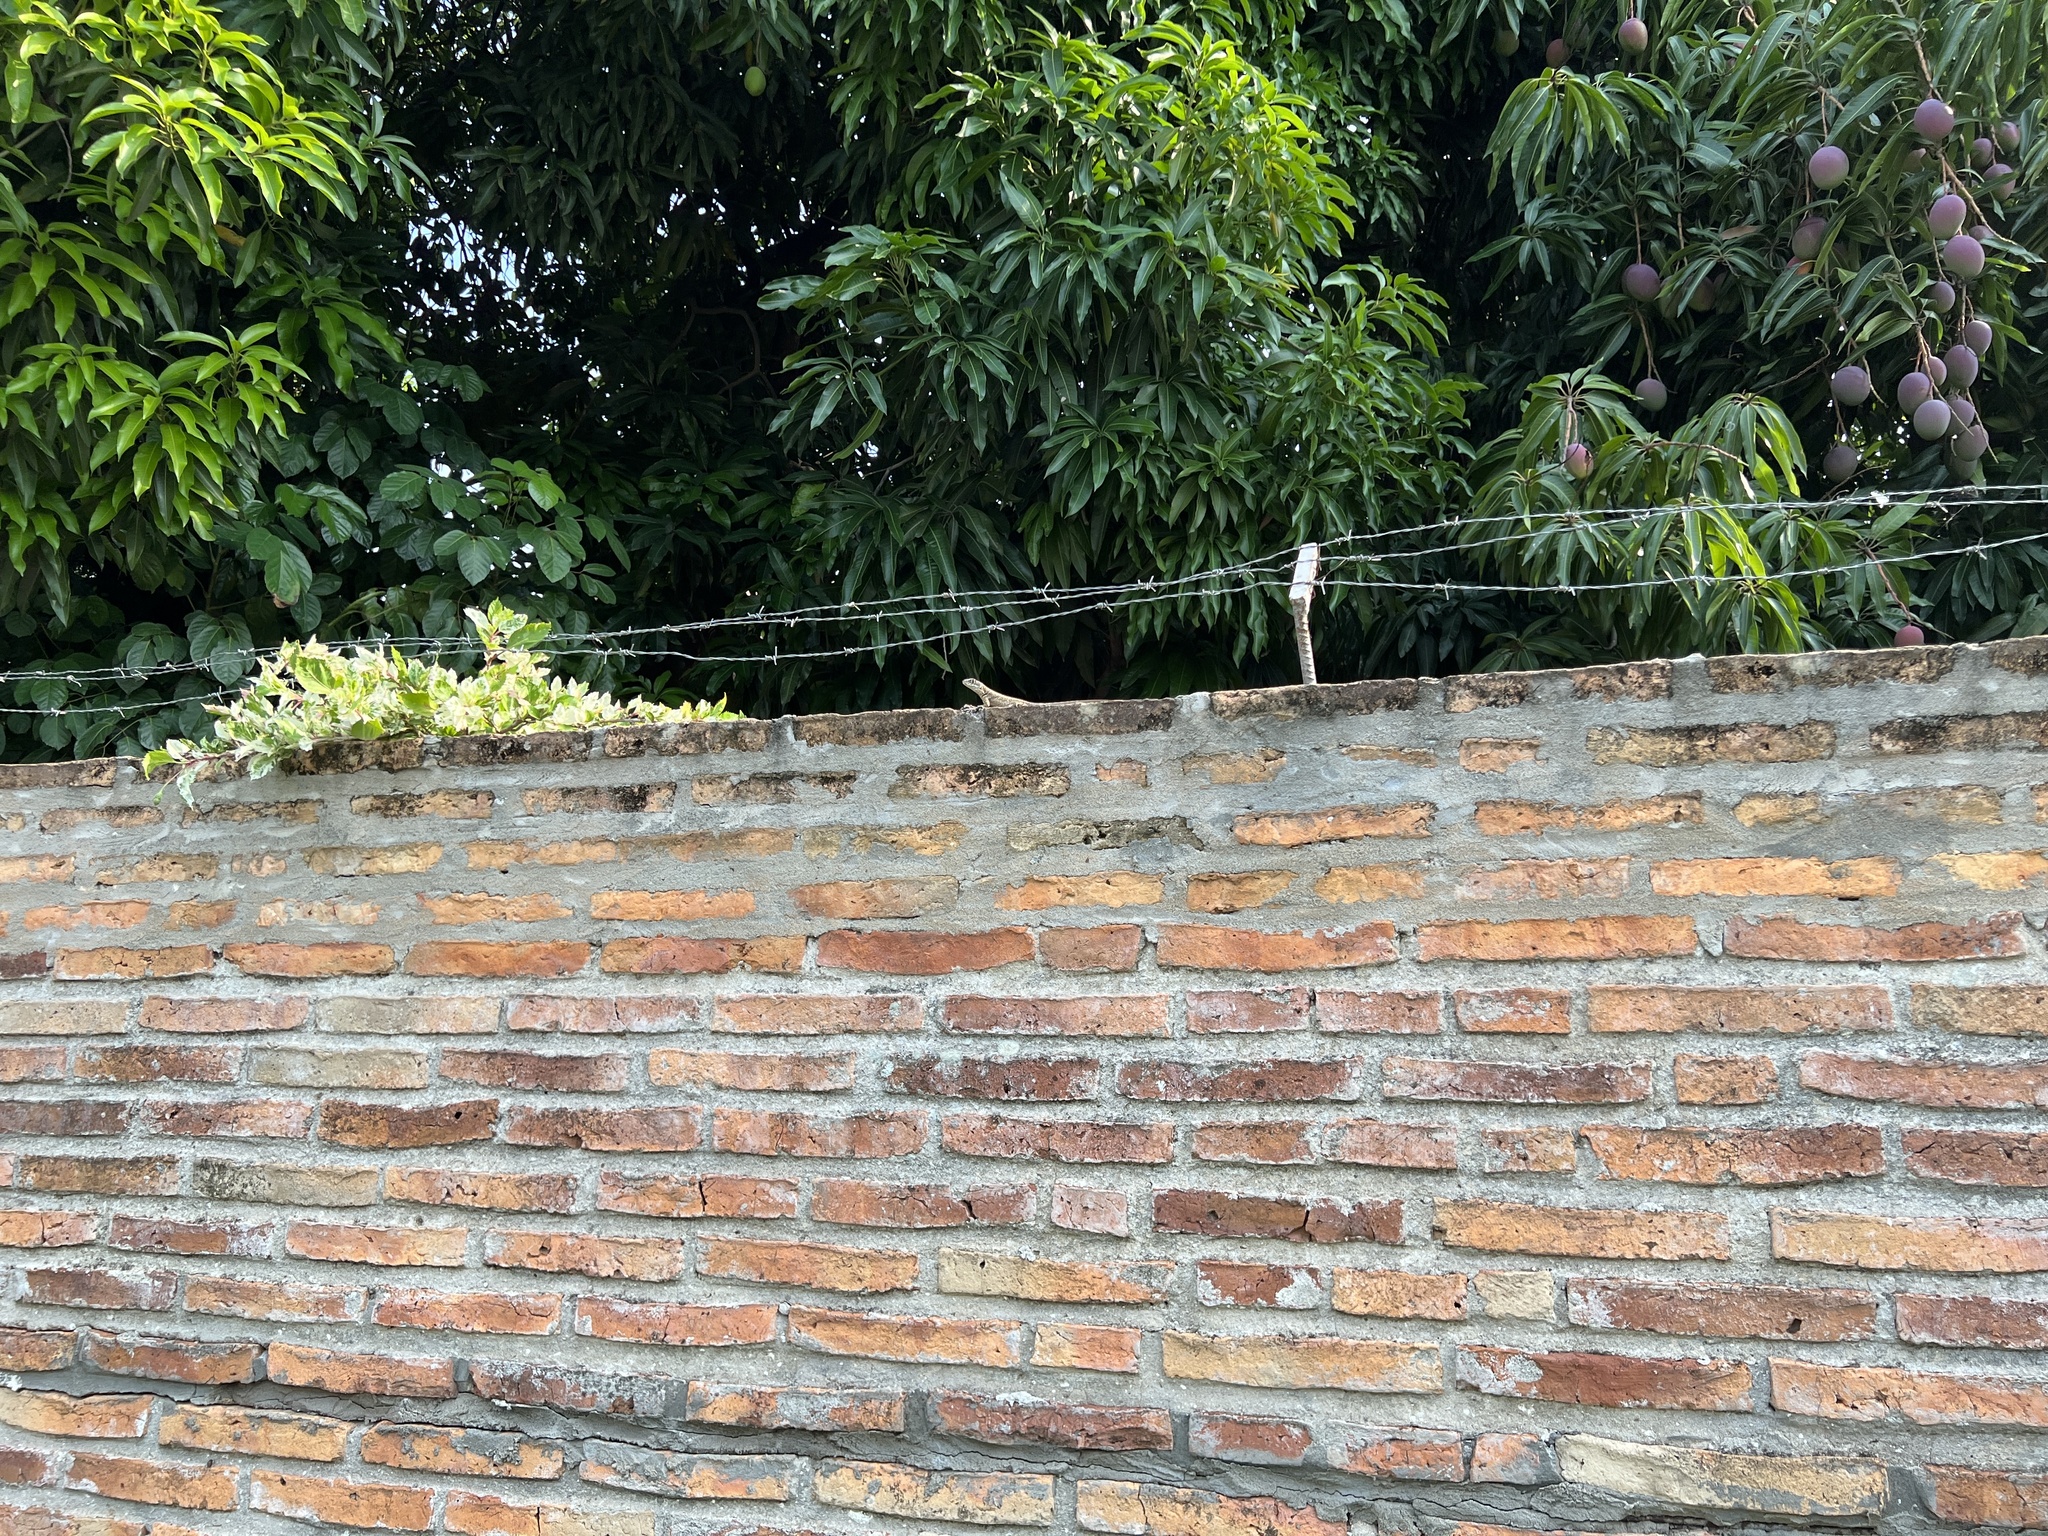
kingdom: Animalia
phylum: Chordata
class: Squamata
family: Tropiduridae
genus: Tropidurus
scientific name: Tropidurus catalanensis
